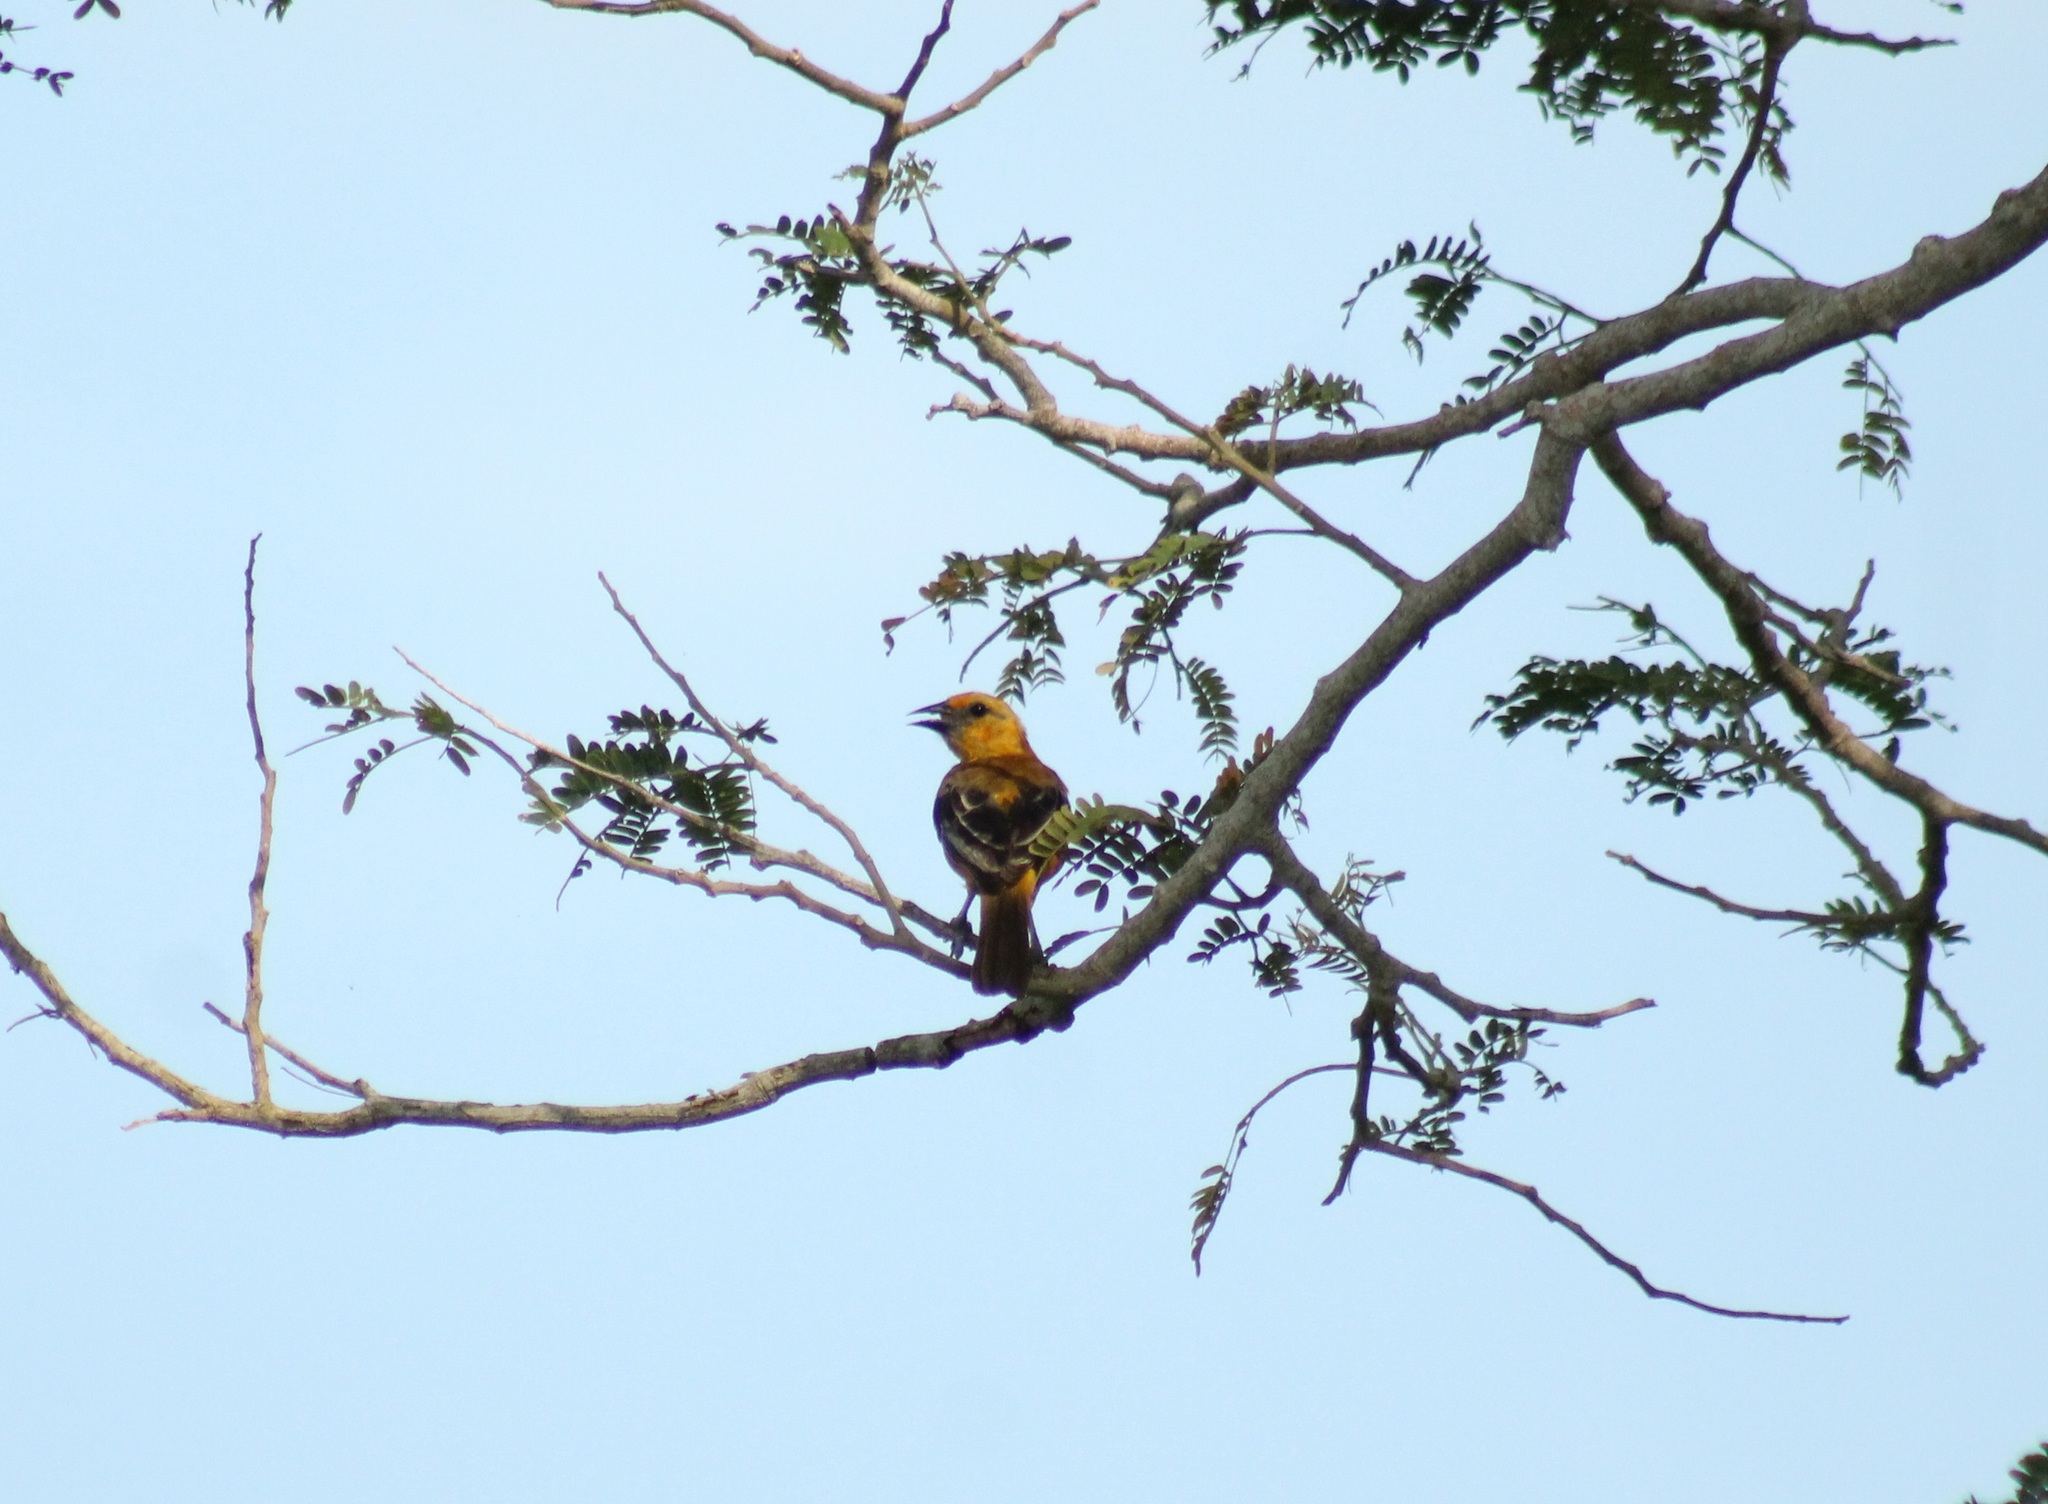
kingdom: Animalia
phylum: Chordata
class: Aves
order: Passeriformes
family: Icteridae
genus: Icterus
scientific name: Icterus gularis
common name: Altamira oriole
